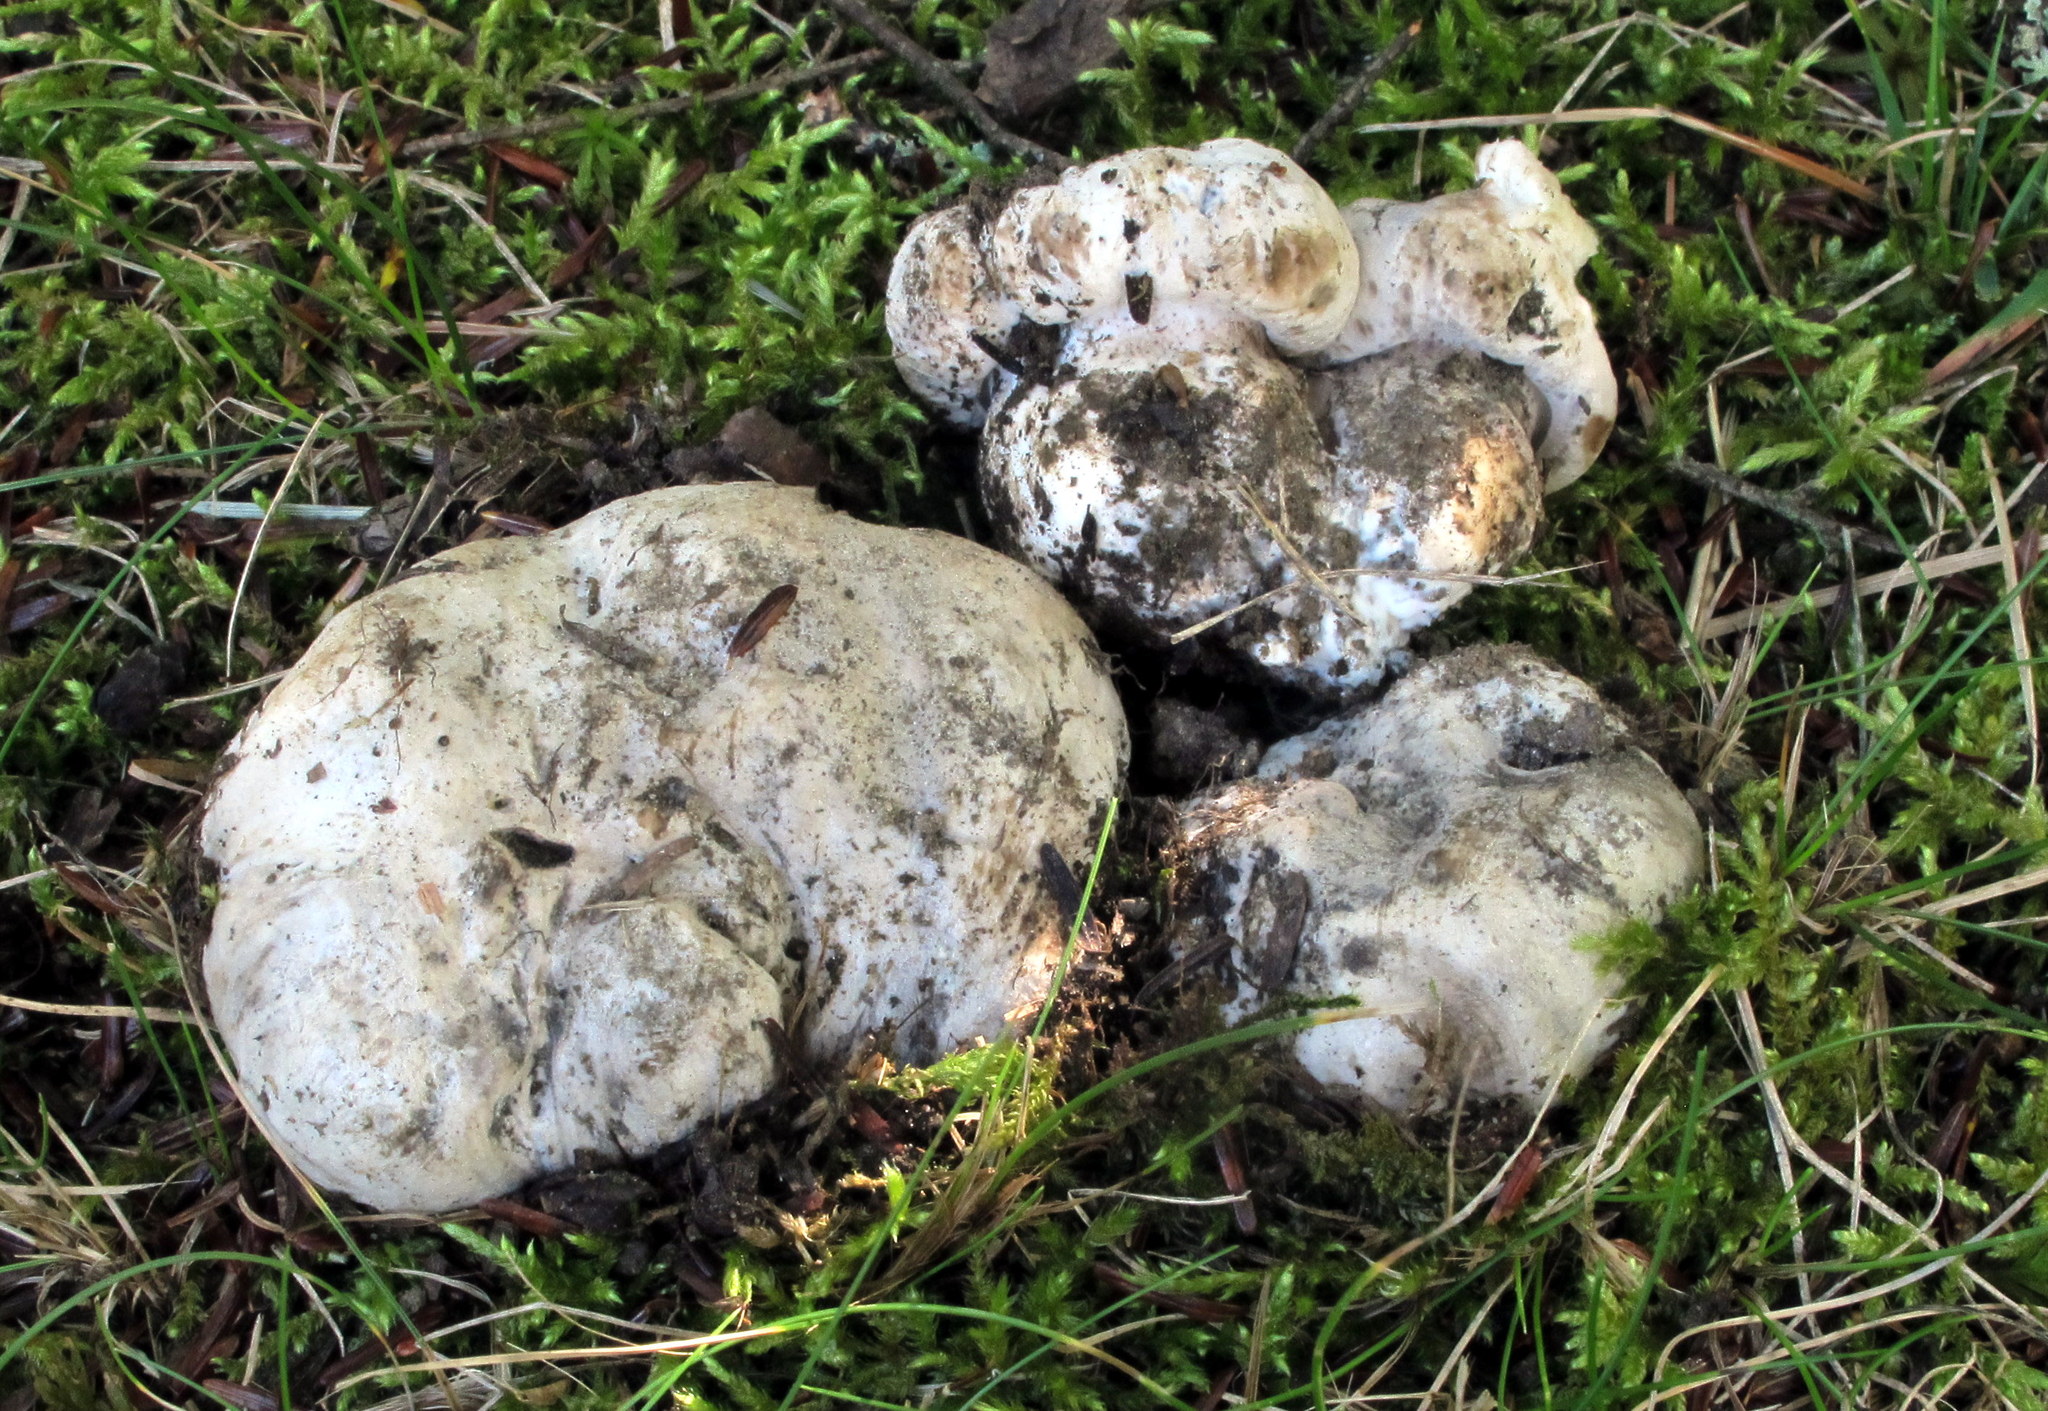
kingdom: Fungi
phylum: Basidiomycota
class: Agaricomycetes
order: Thelephorales
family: Bankeraceae
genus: Boletopsis
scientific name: Boletopsis grisea
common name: Grey falsebolete
